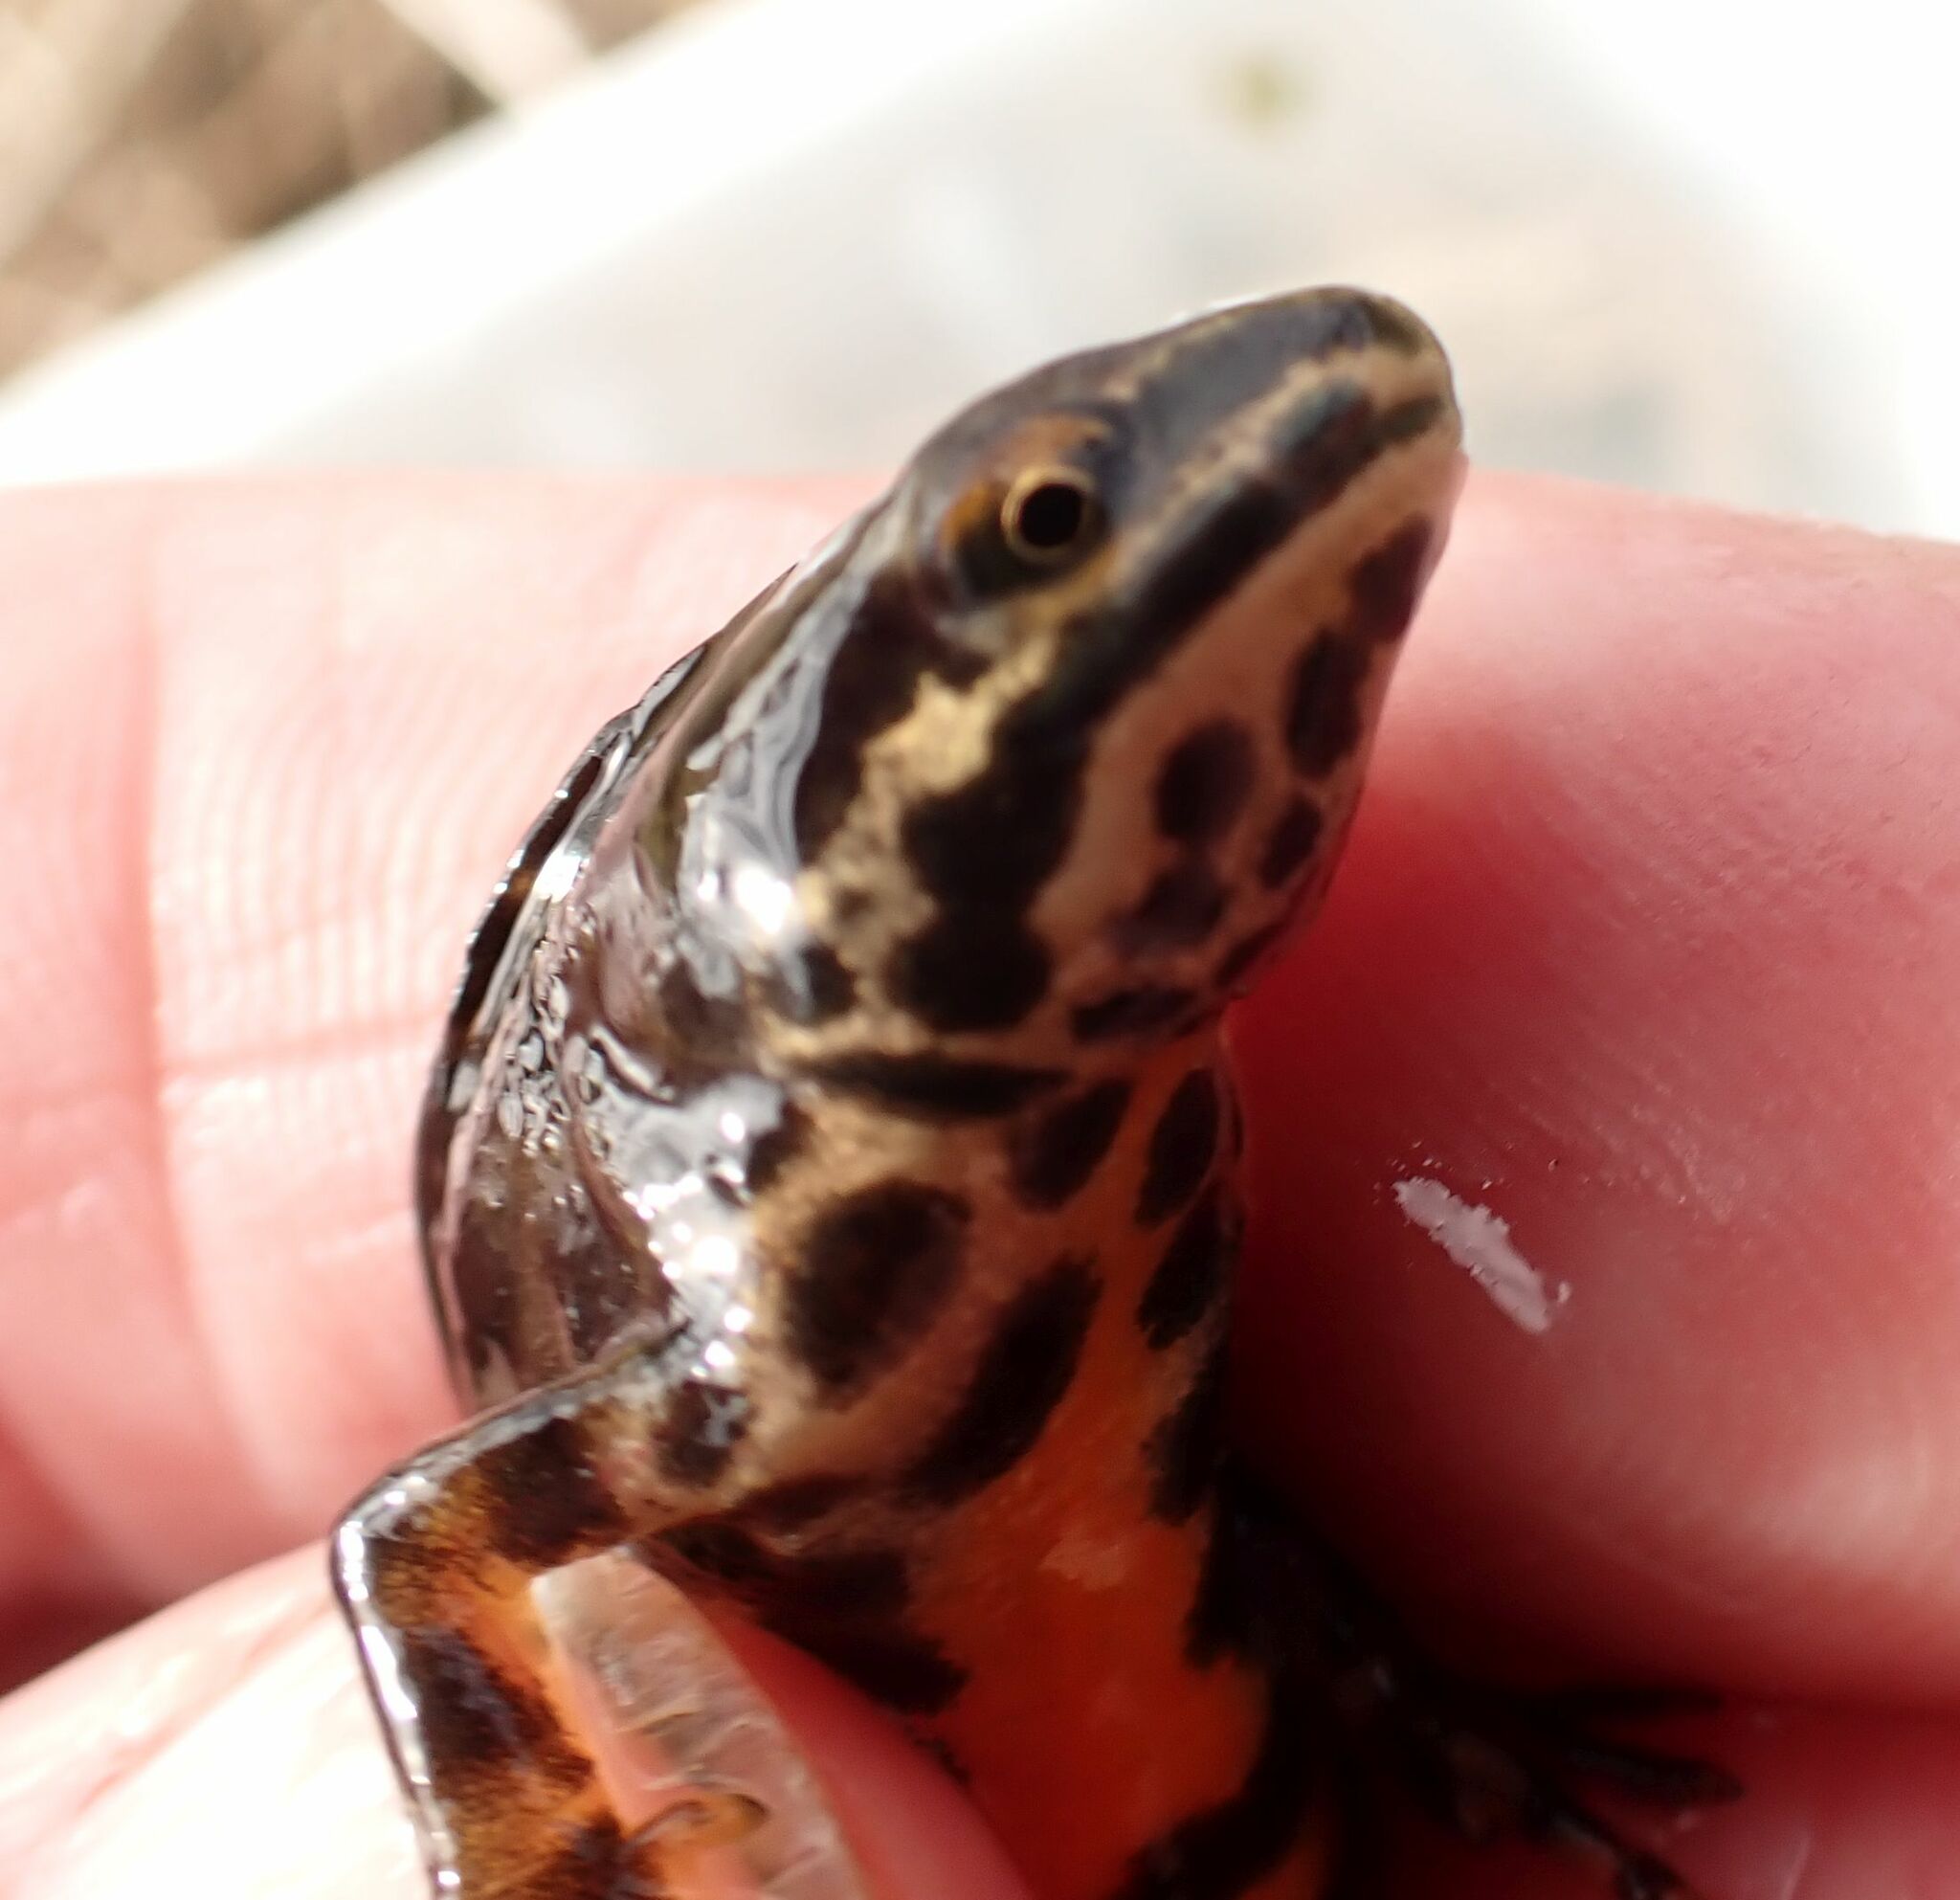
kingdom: Animalia
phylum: Chordata
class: Amphibia
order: Caudata
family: Salamandridae
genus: Lissotriton
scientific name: Lissotriton vulgaris
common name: Smooth newt
